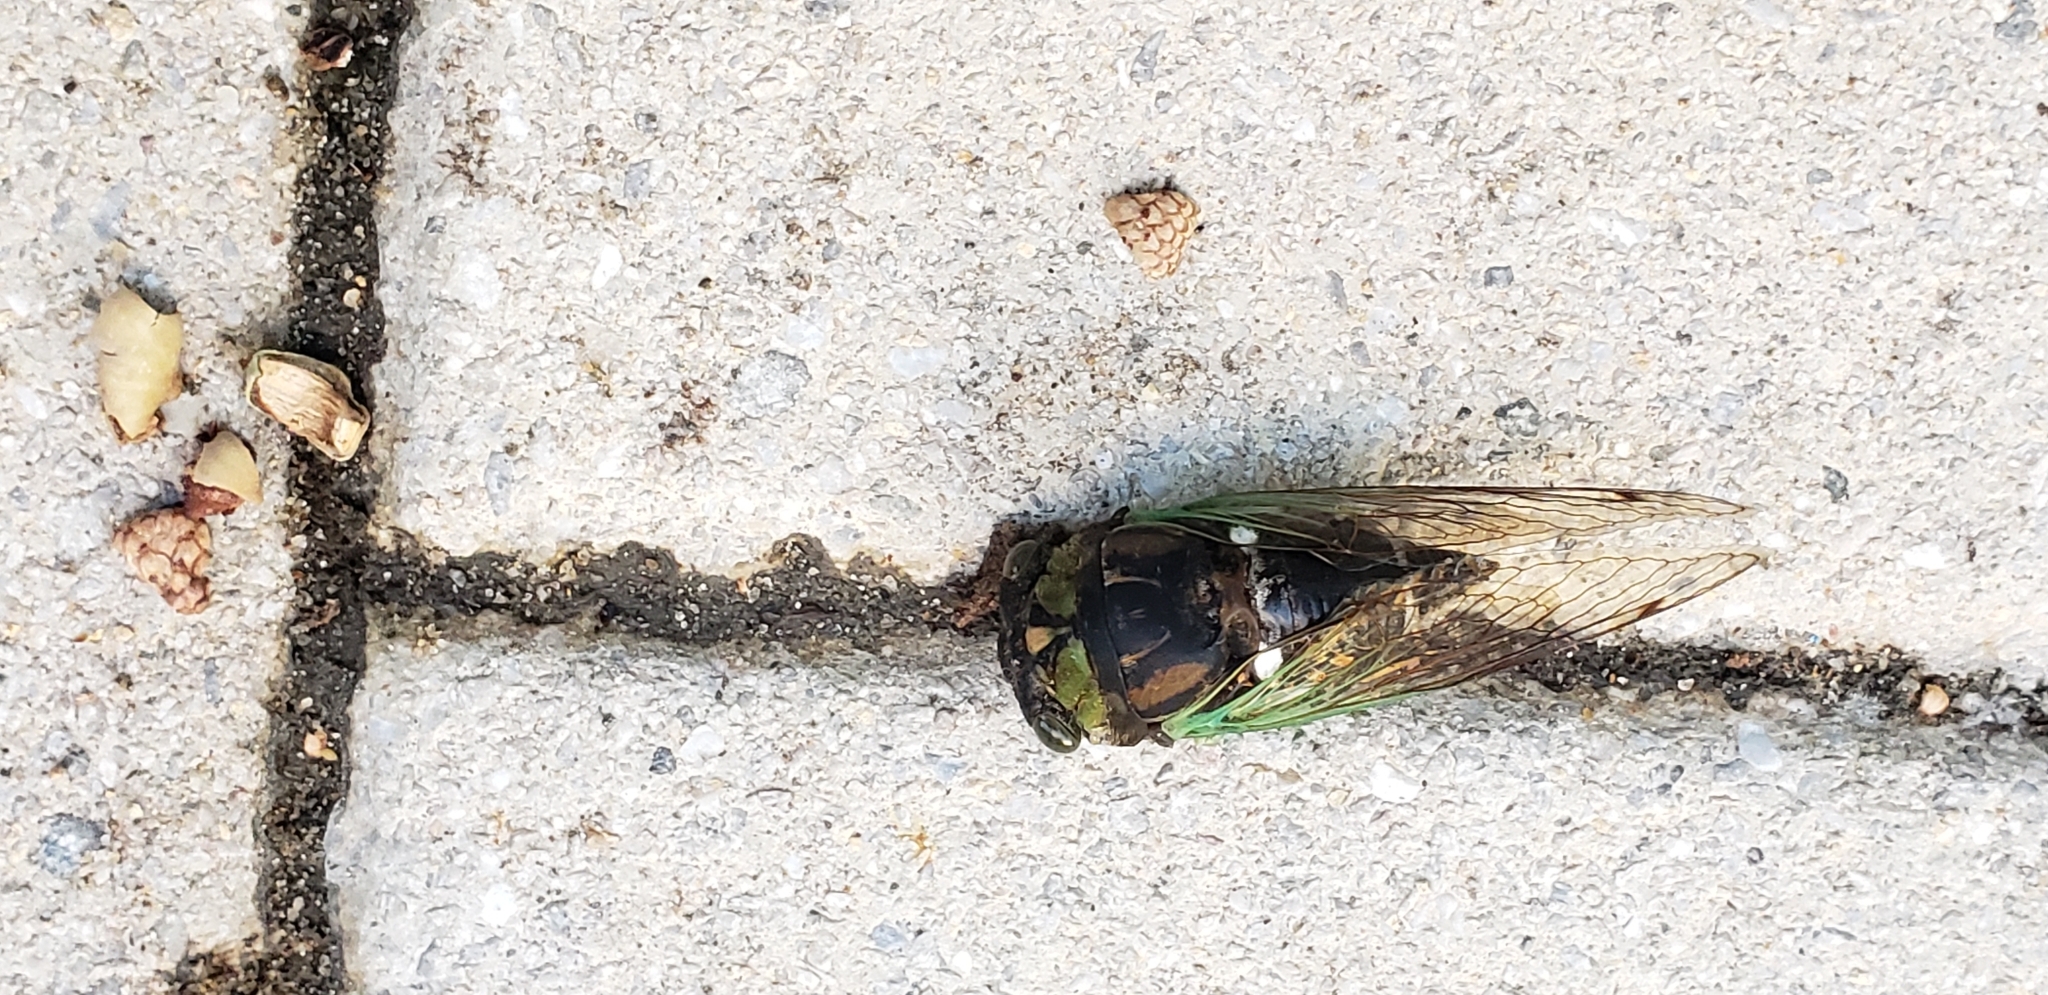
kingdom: Animalia
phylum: Arthropoda
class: Insecta
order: Hemiptera
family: Cicadidae
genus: Neotibicen
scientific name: Neotibicen tibicen
